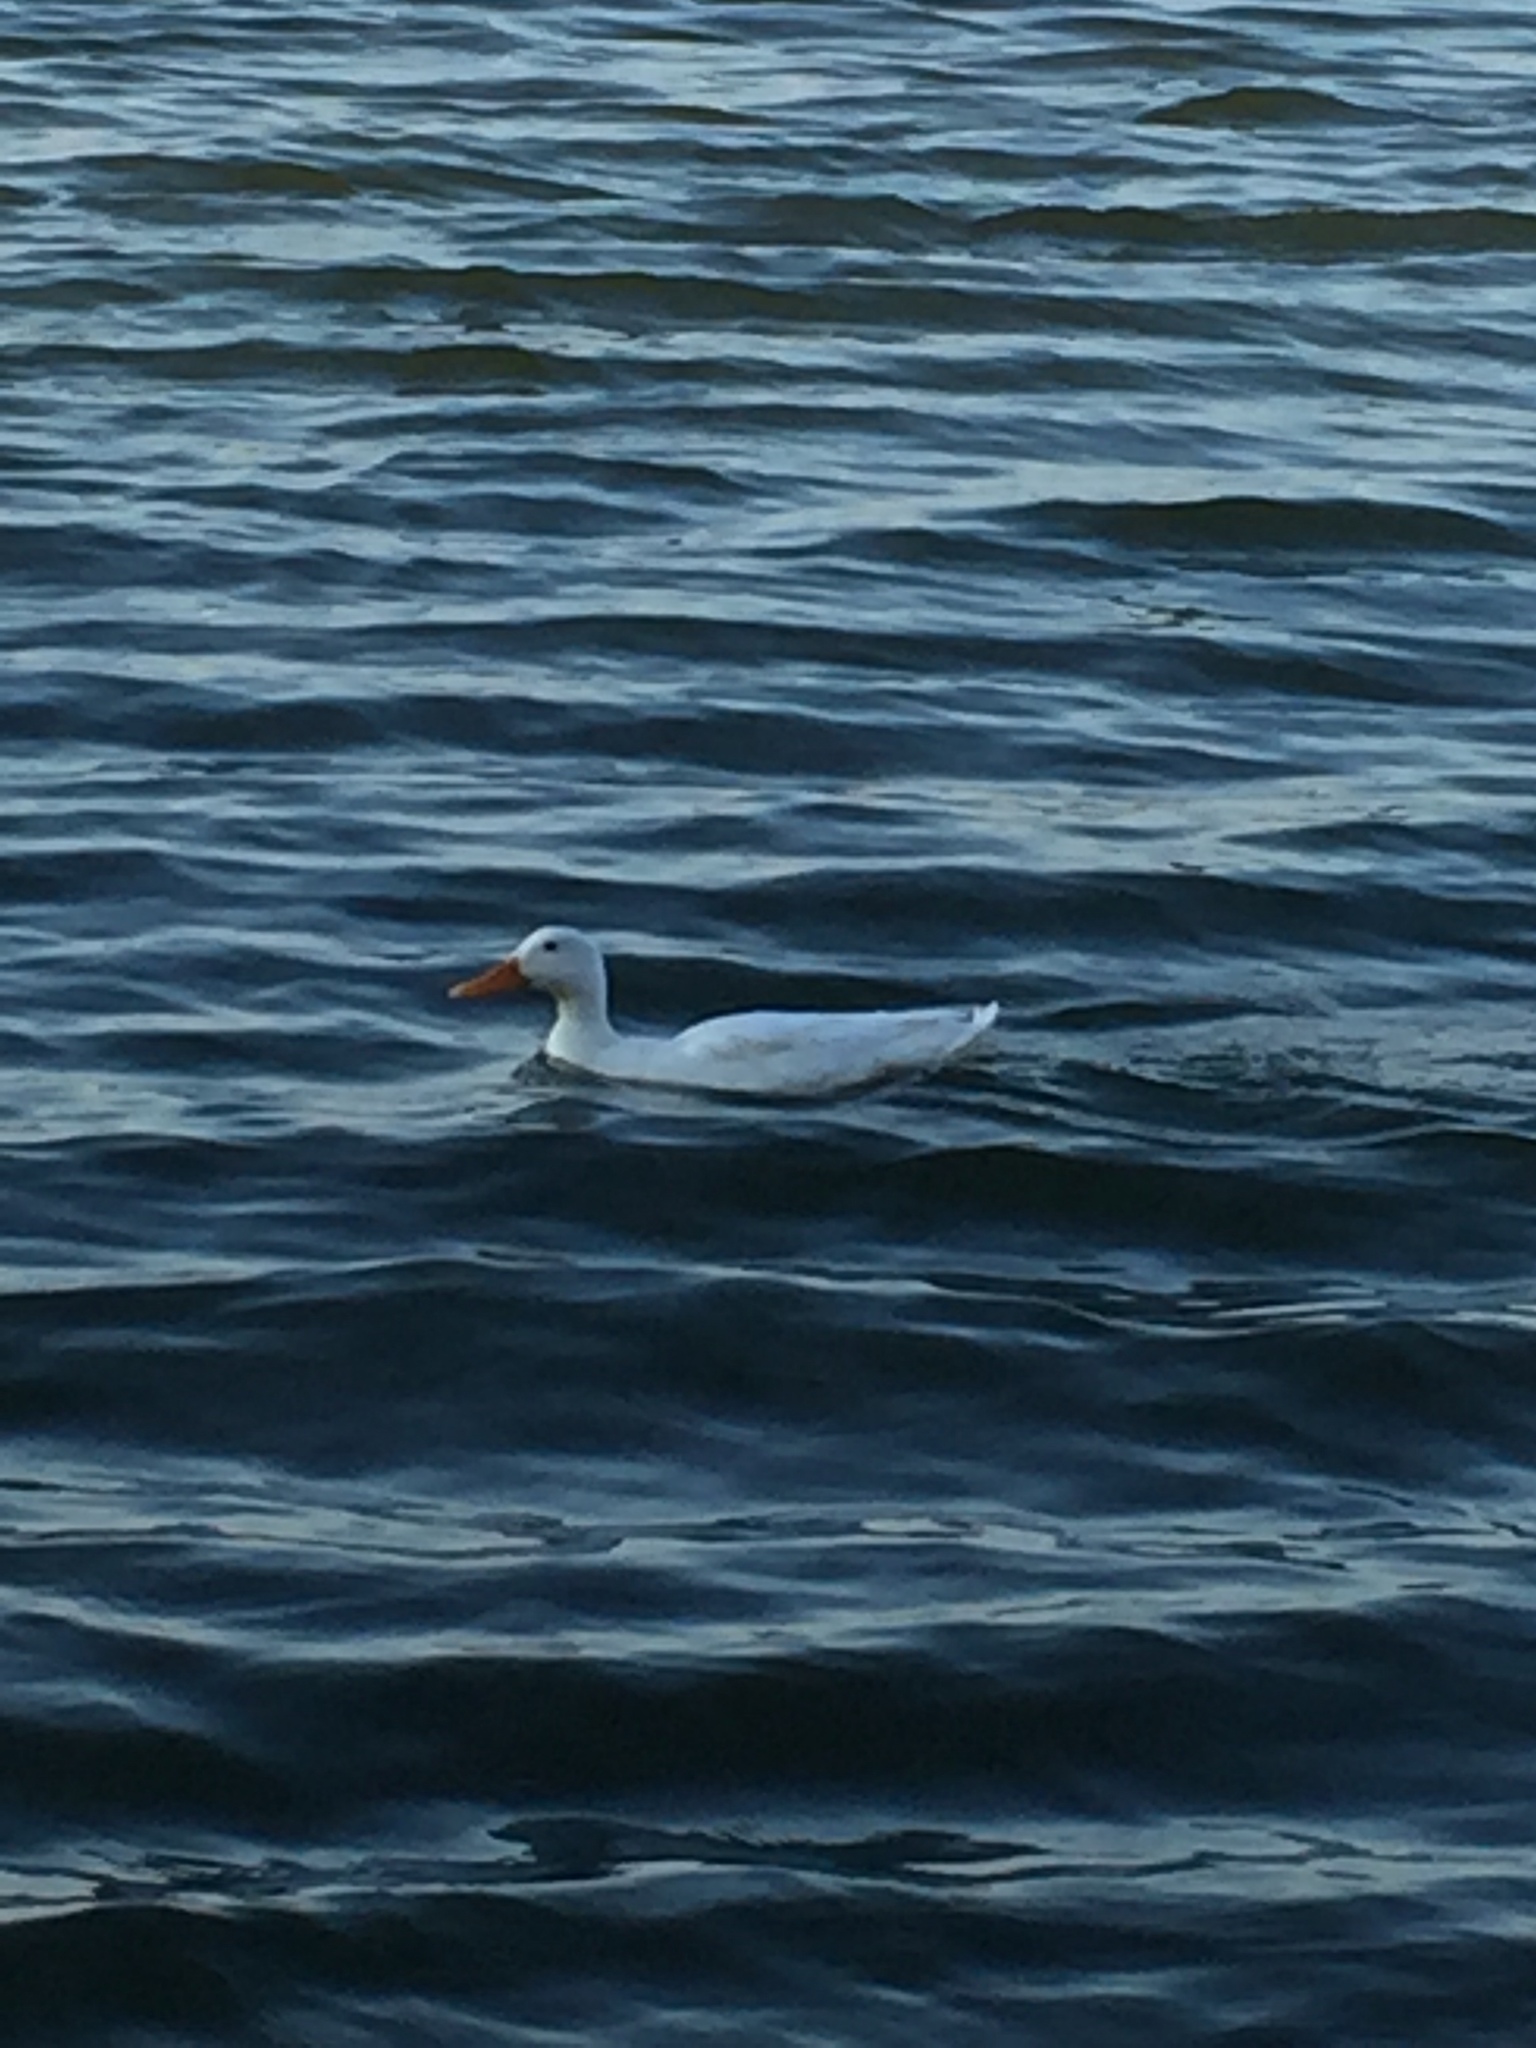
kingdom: Animalia
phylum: Chordata
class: Aves
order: Anseriformes
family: Anatidae
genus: Anas
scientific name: Anas platyrhynchos
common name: Mallard
